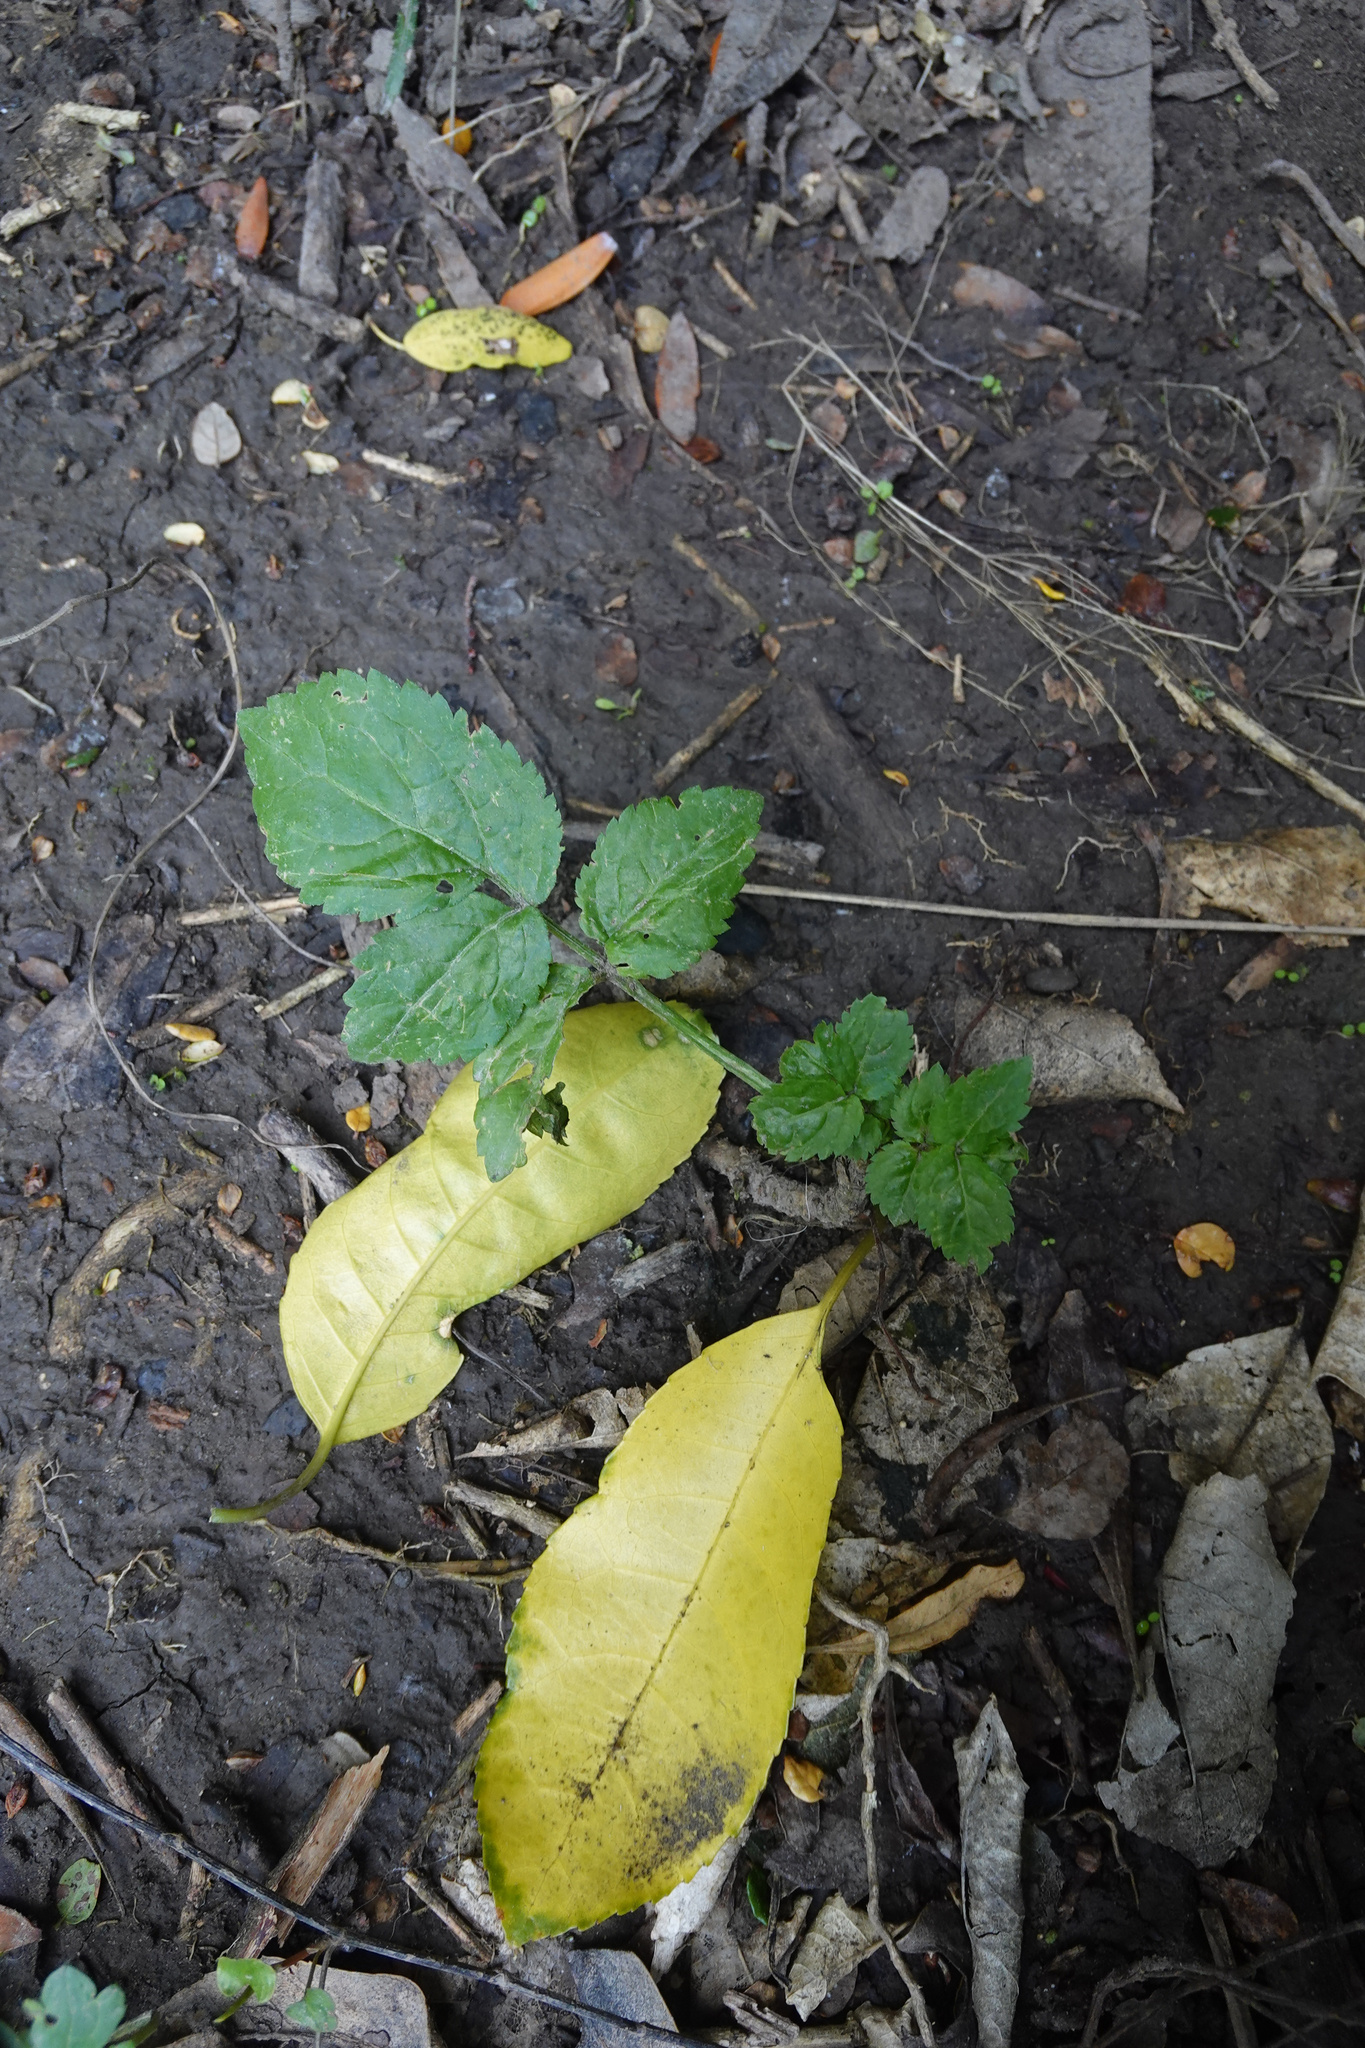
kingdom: Plantae
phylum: Tracheophyta
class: Magnoliopsida
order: Dipsacales
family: Viburnaceae
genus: Sambucus
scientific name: Sambucus nigra
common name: Elder
